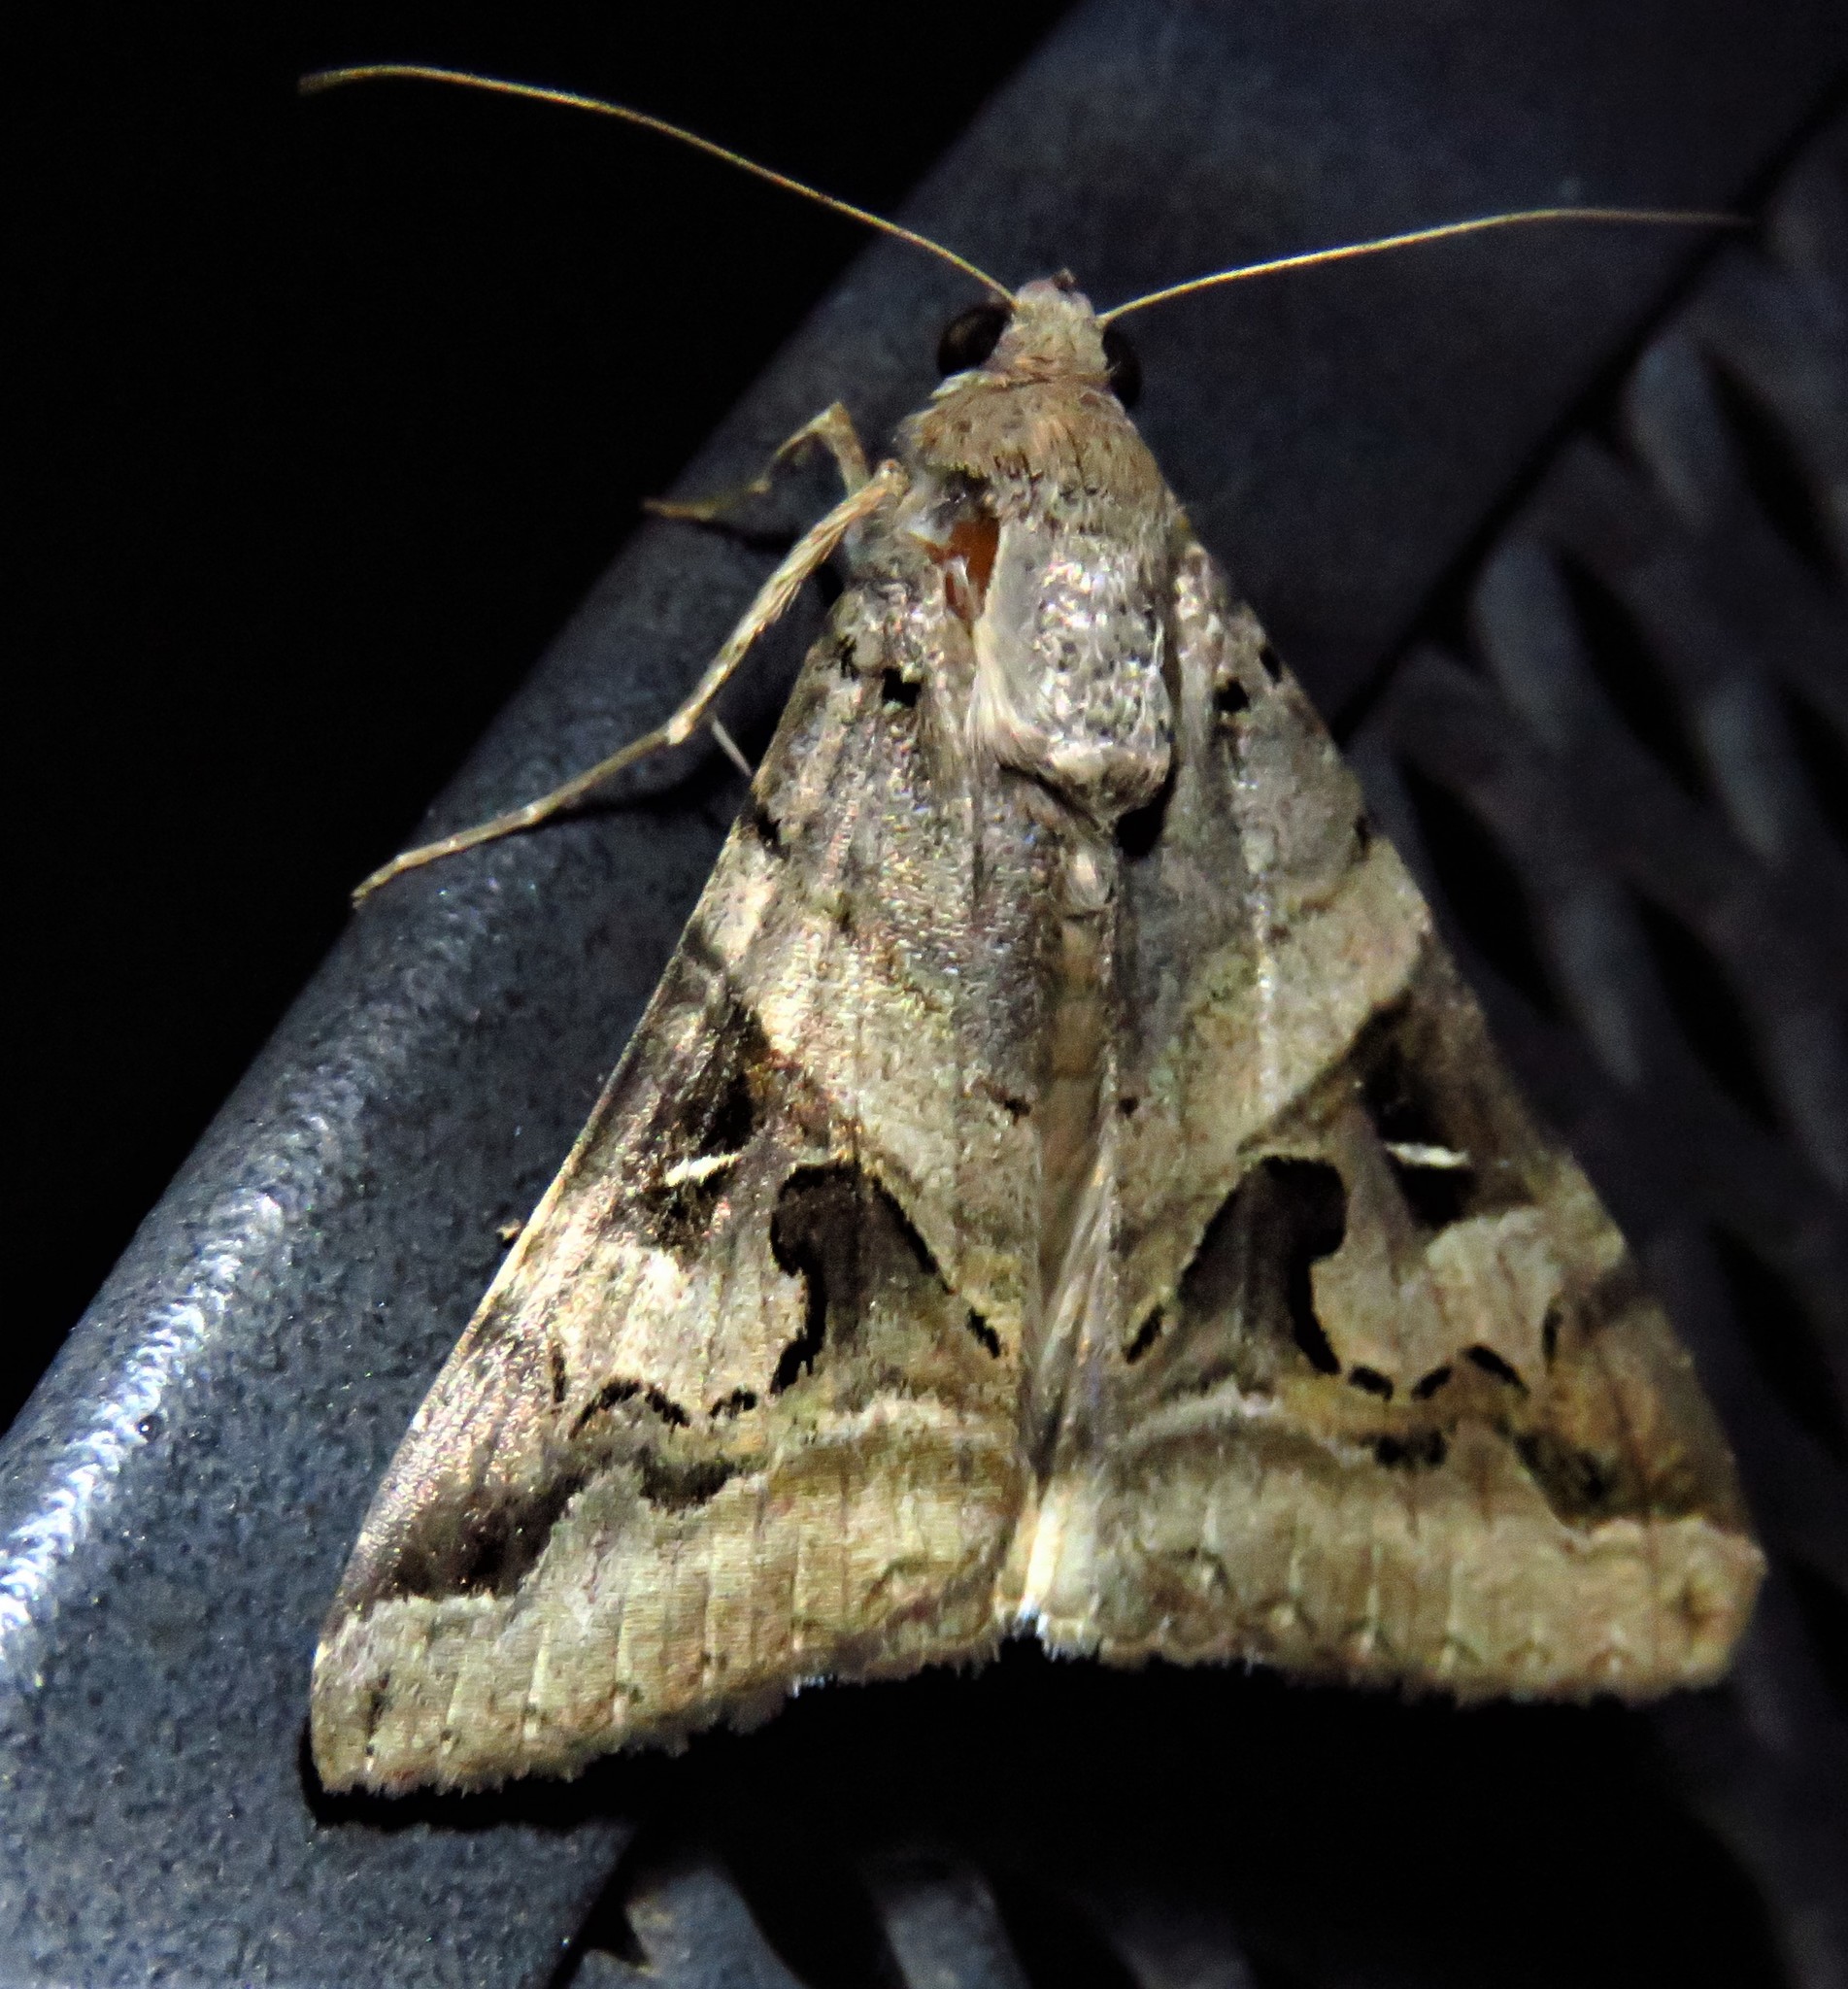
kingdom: Animalia
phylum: Arthropoda
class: Insecta
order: Lepidoptera
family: Erebidae
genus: Melipotis
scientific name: Melipotis indomita
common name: Moth
